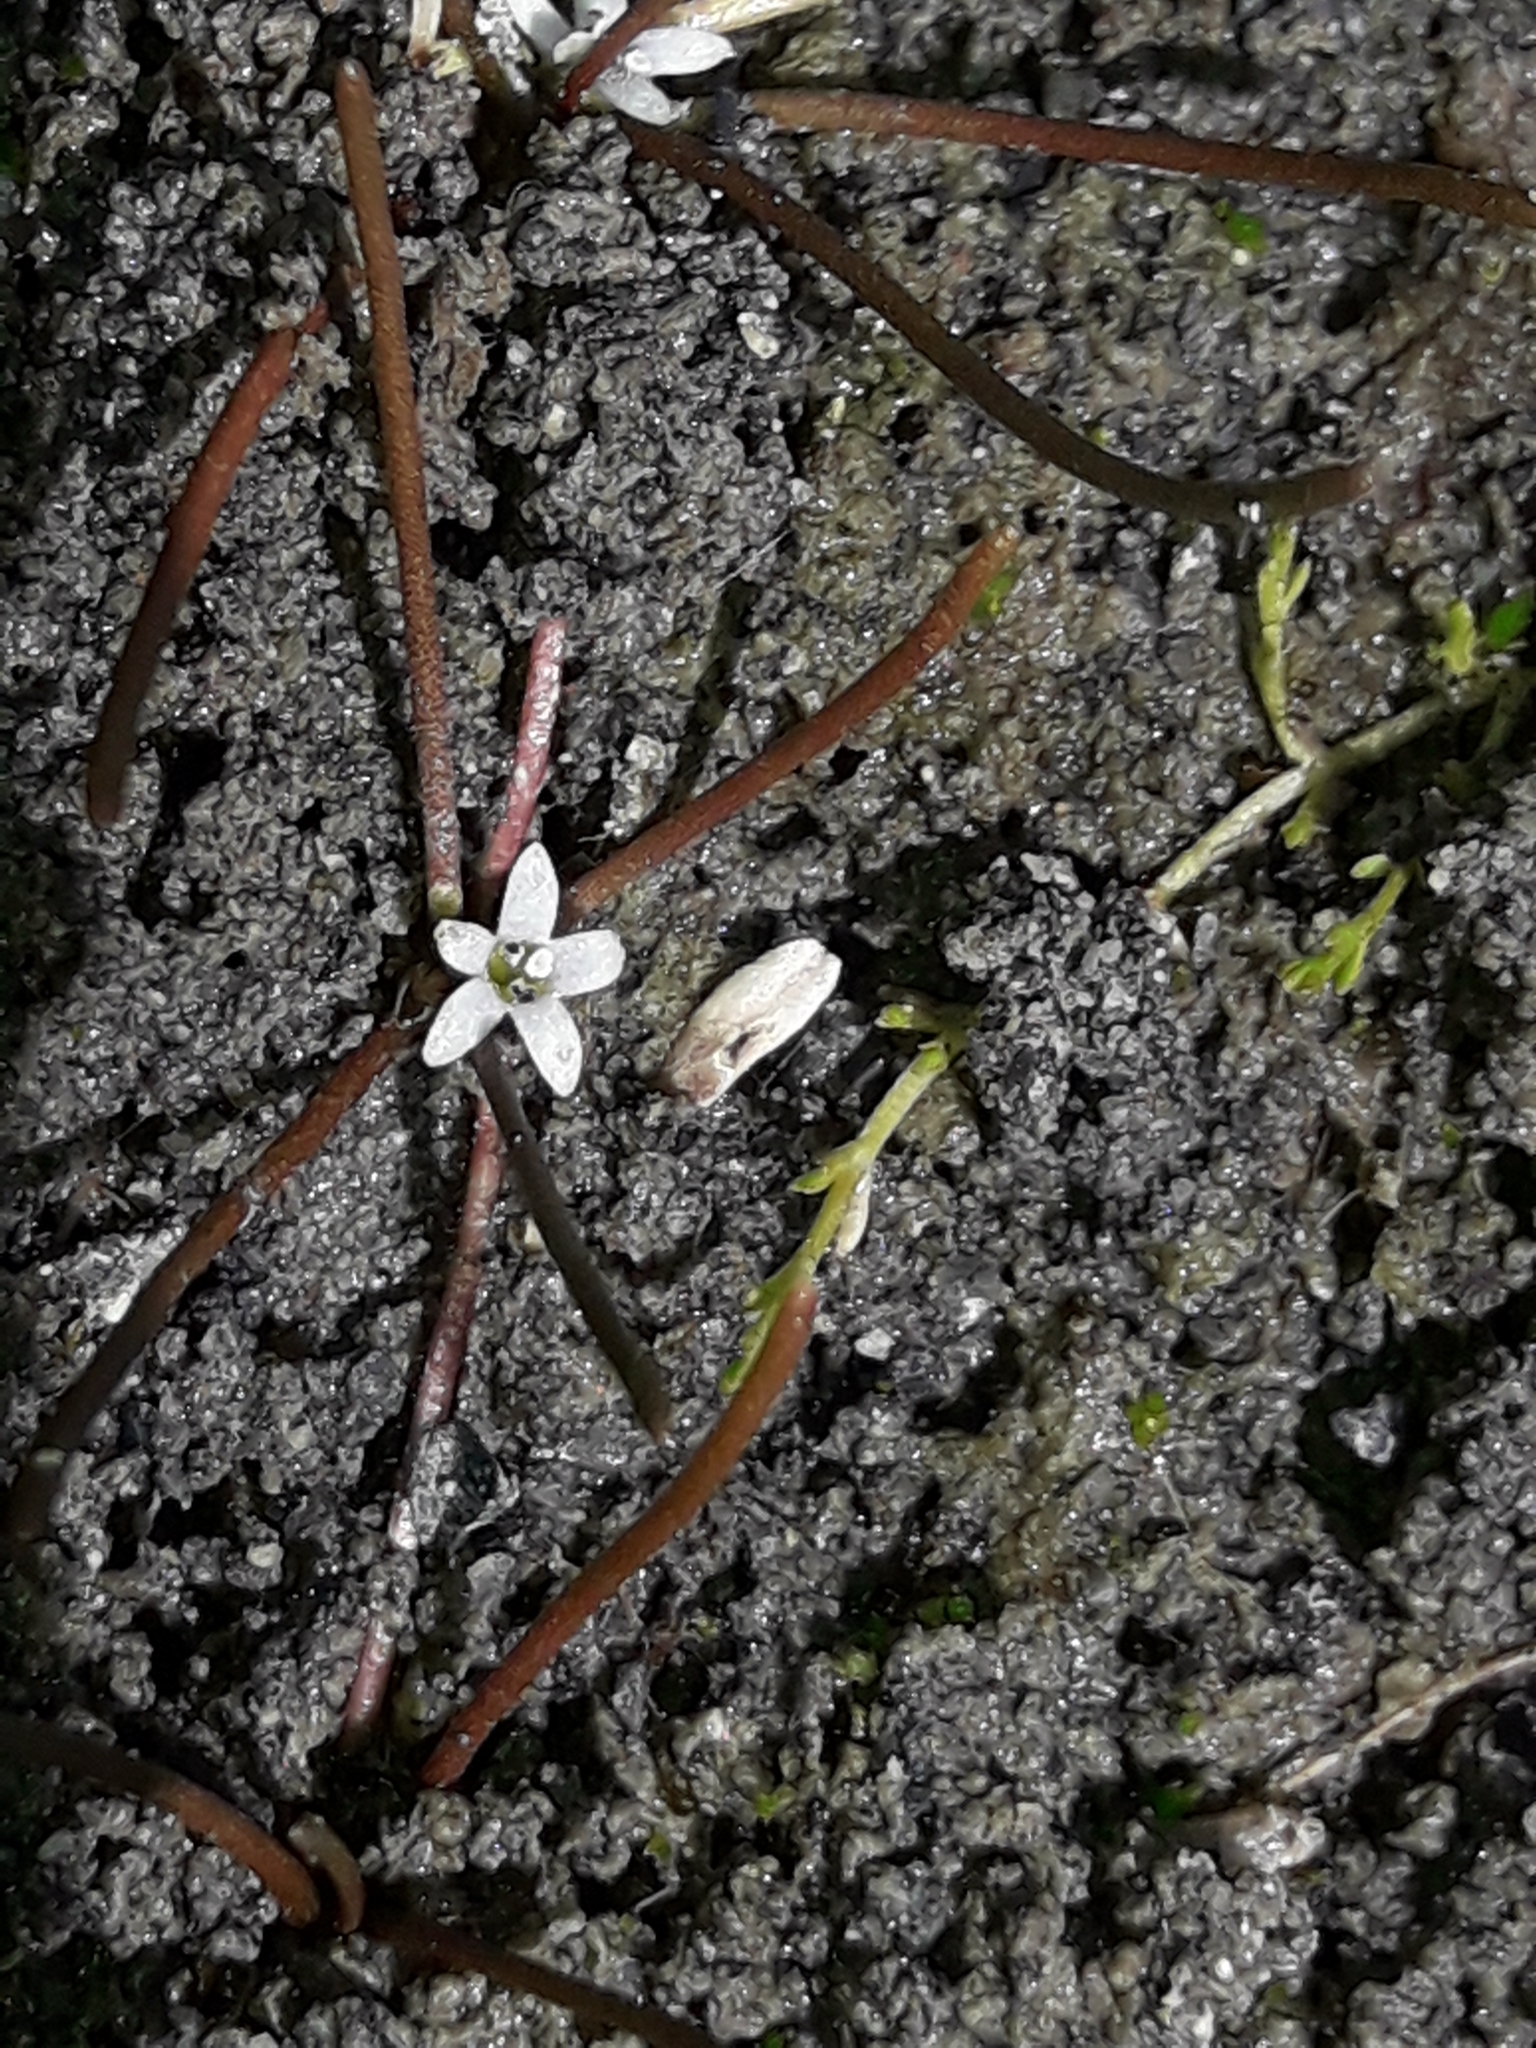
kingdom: Plantae
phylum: Tracheophyta
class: Magnoliopsida
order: Lamiales
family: Scrophulariaceae
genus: Limosella
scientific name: Limosella australis
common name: Welsh mudwort
